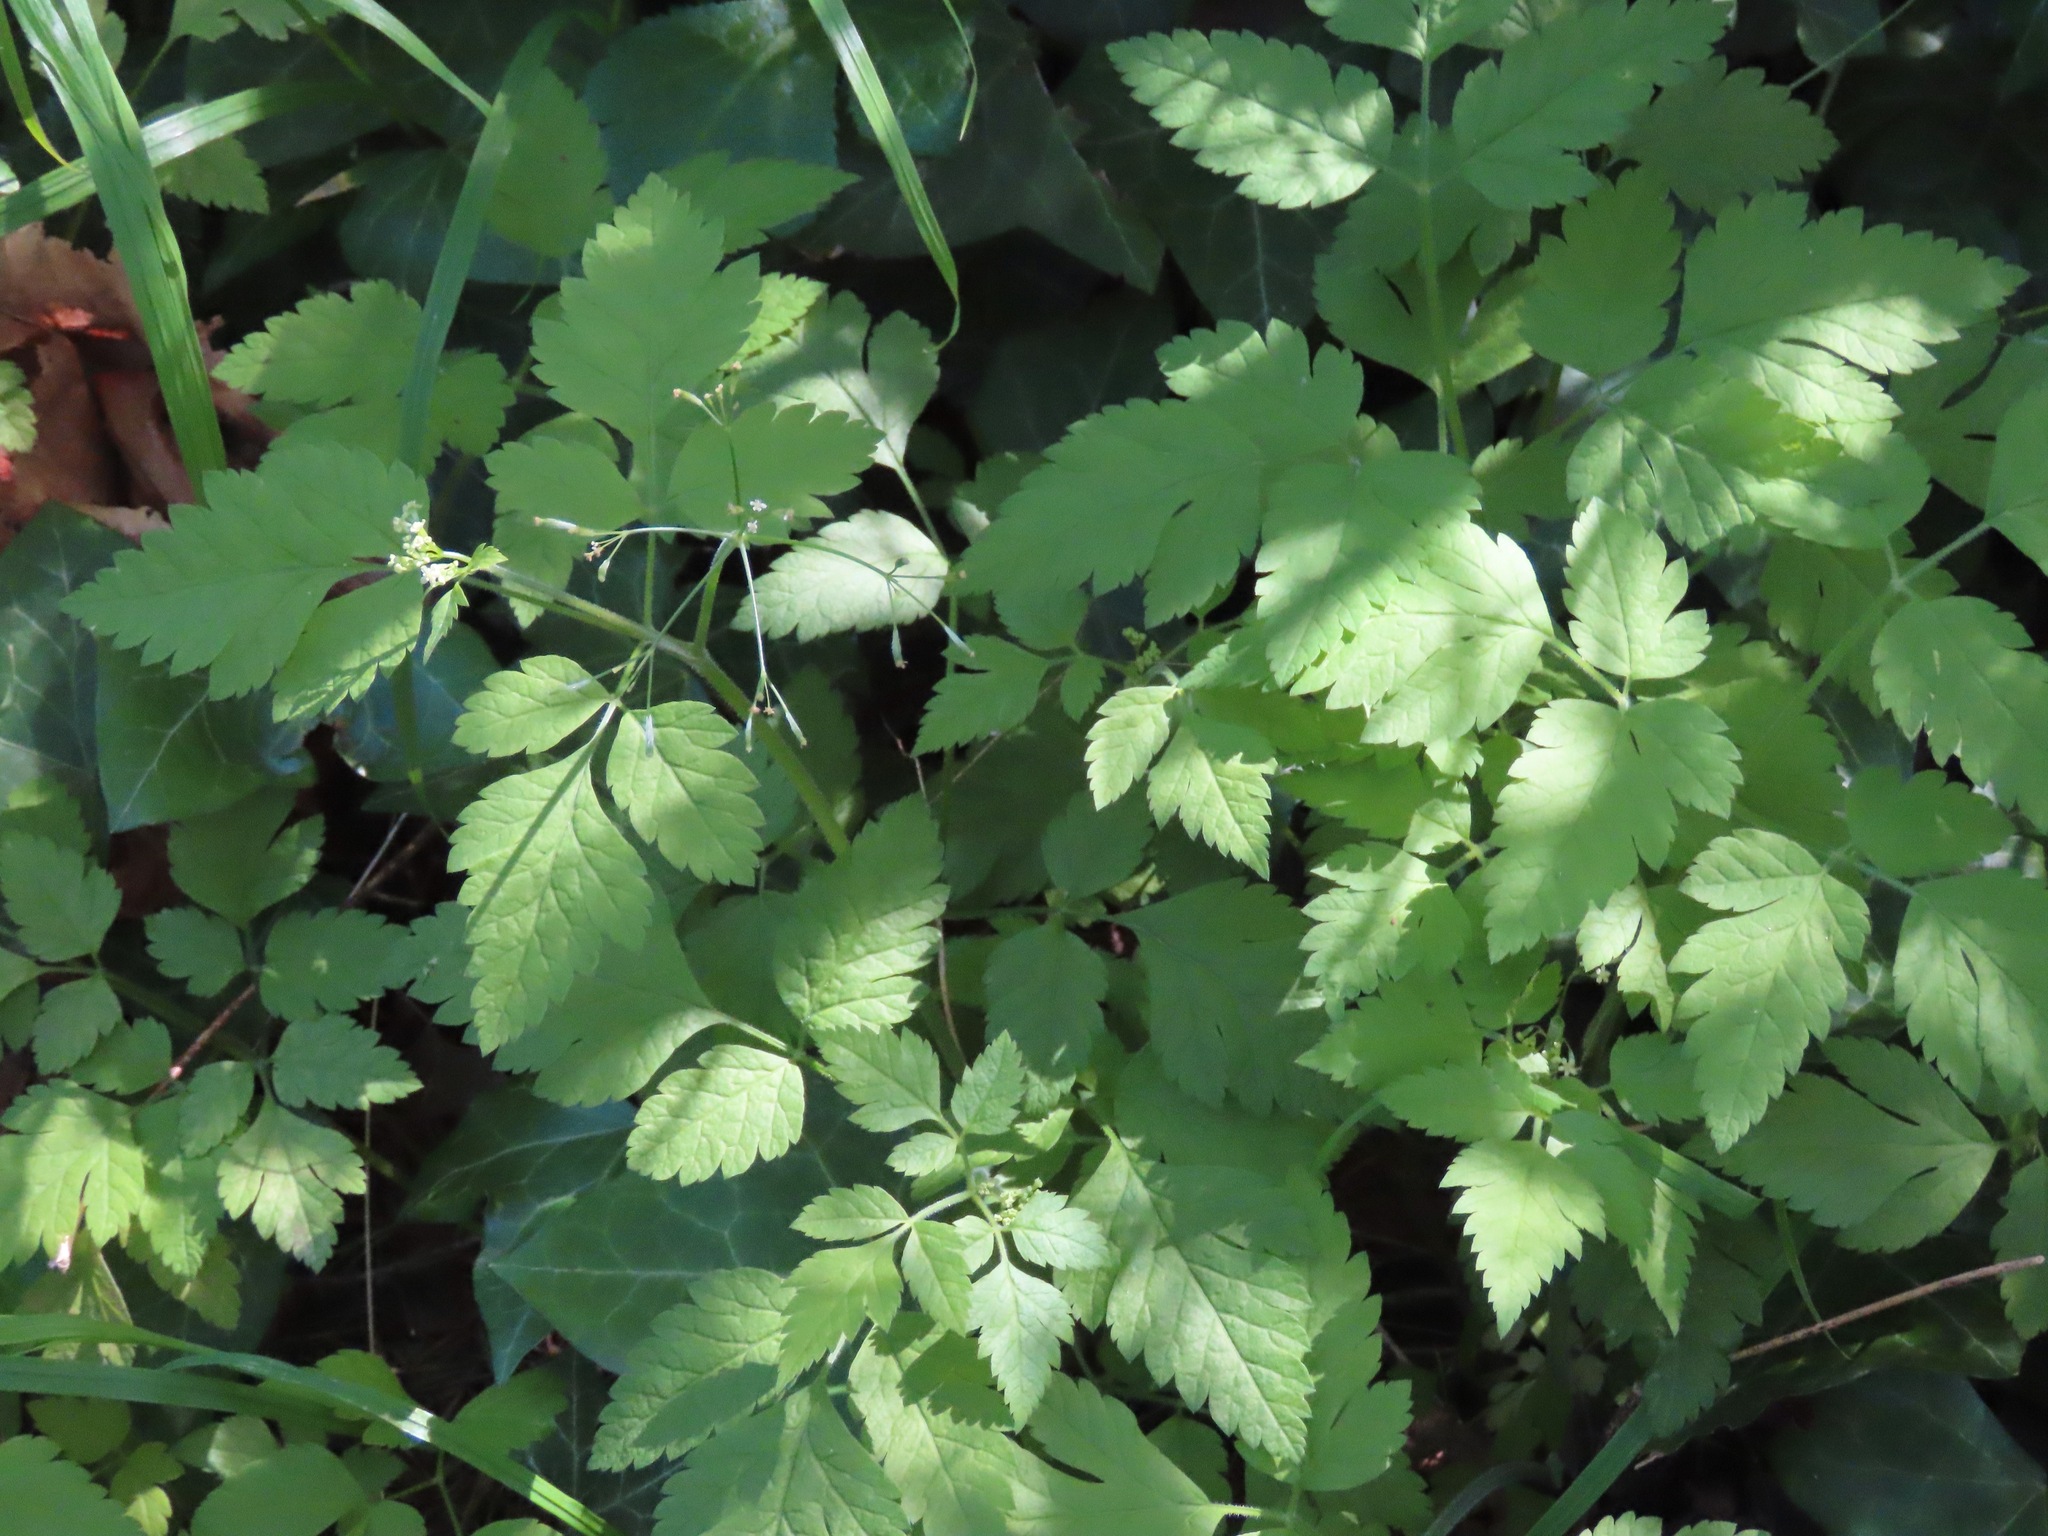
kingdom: Plantae
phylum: Tracheophyta
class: Magnoliopsida
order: Apiales
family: Apiaceae
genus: Osmorhiza
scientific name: Osmorhiza berteroi
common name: Mountain sweet cicely
